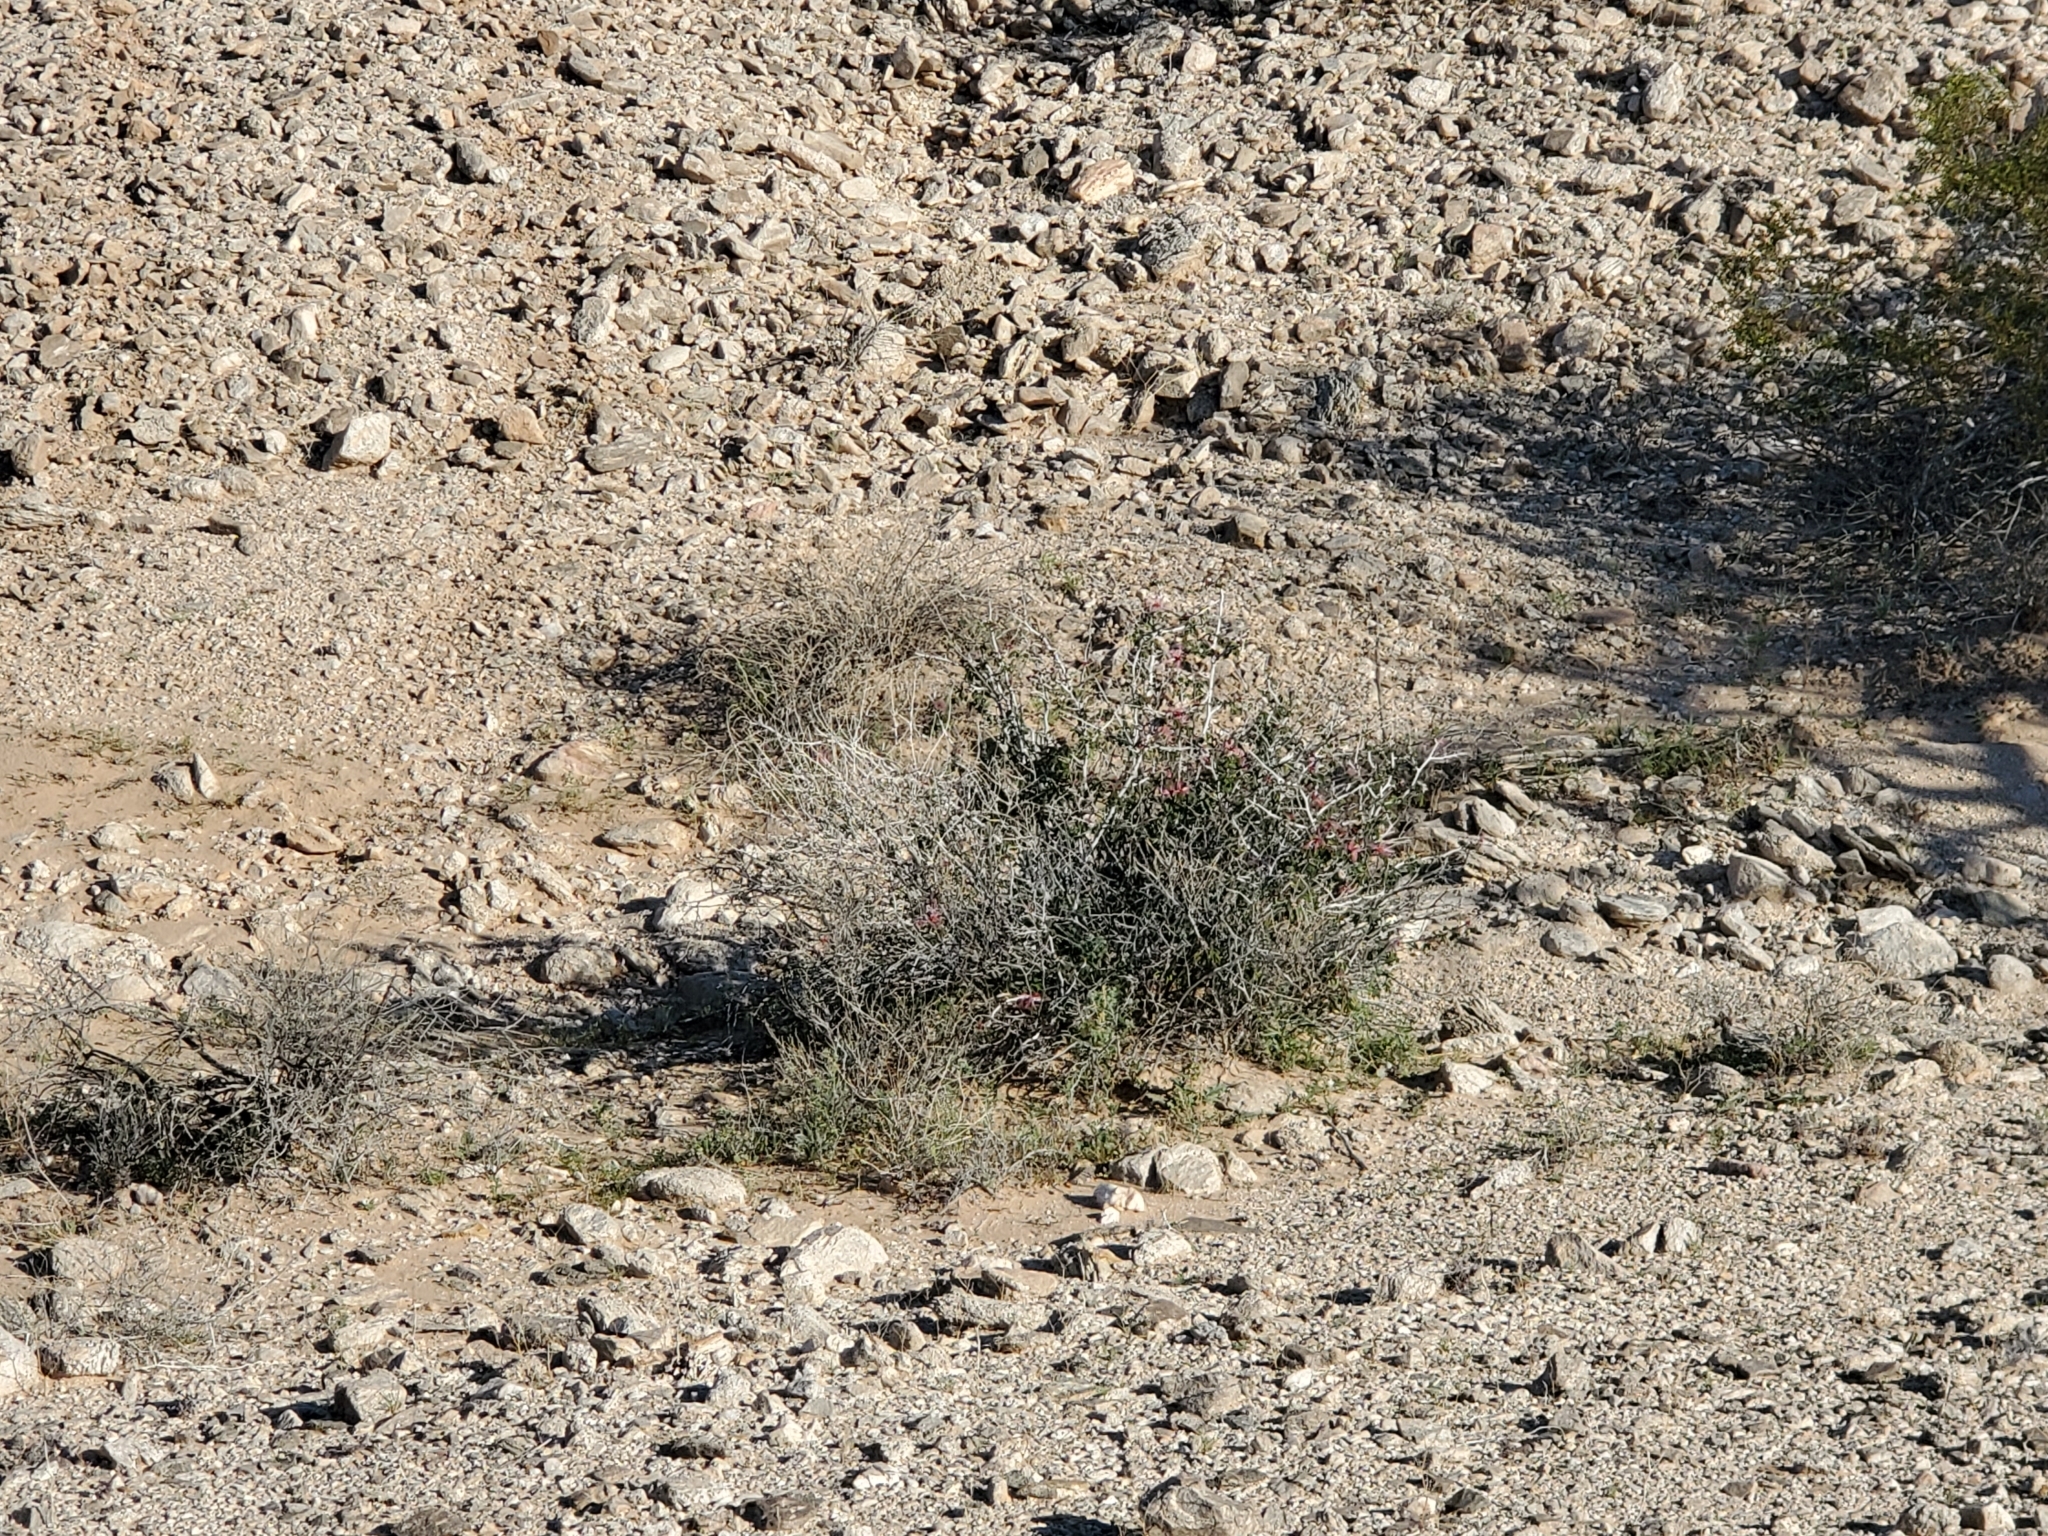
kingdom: Plantae
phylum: Tracheophyta
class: Magnoliopsida
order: Fabales
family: Fabaceae
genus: Calliandra
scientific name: Calliandra eriophylla
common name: Fairy-duster
